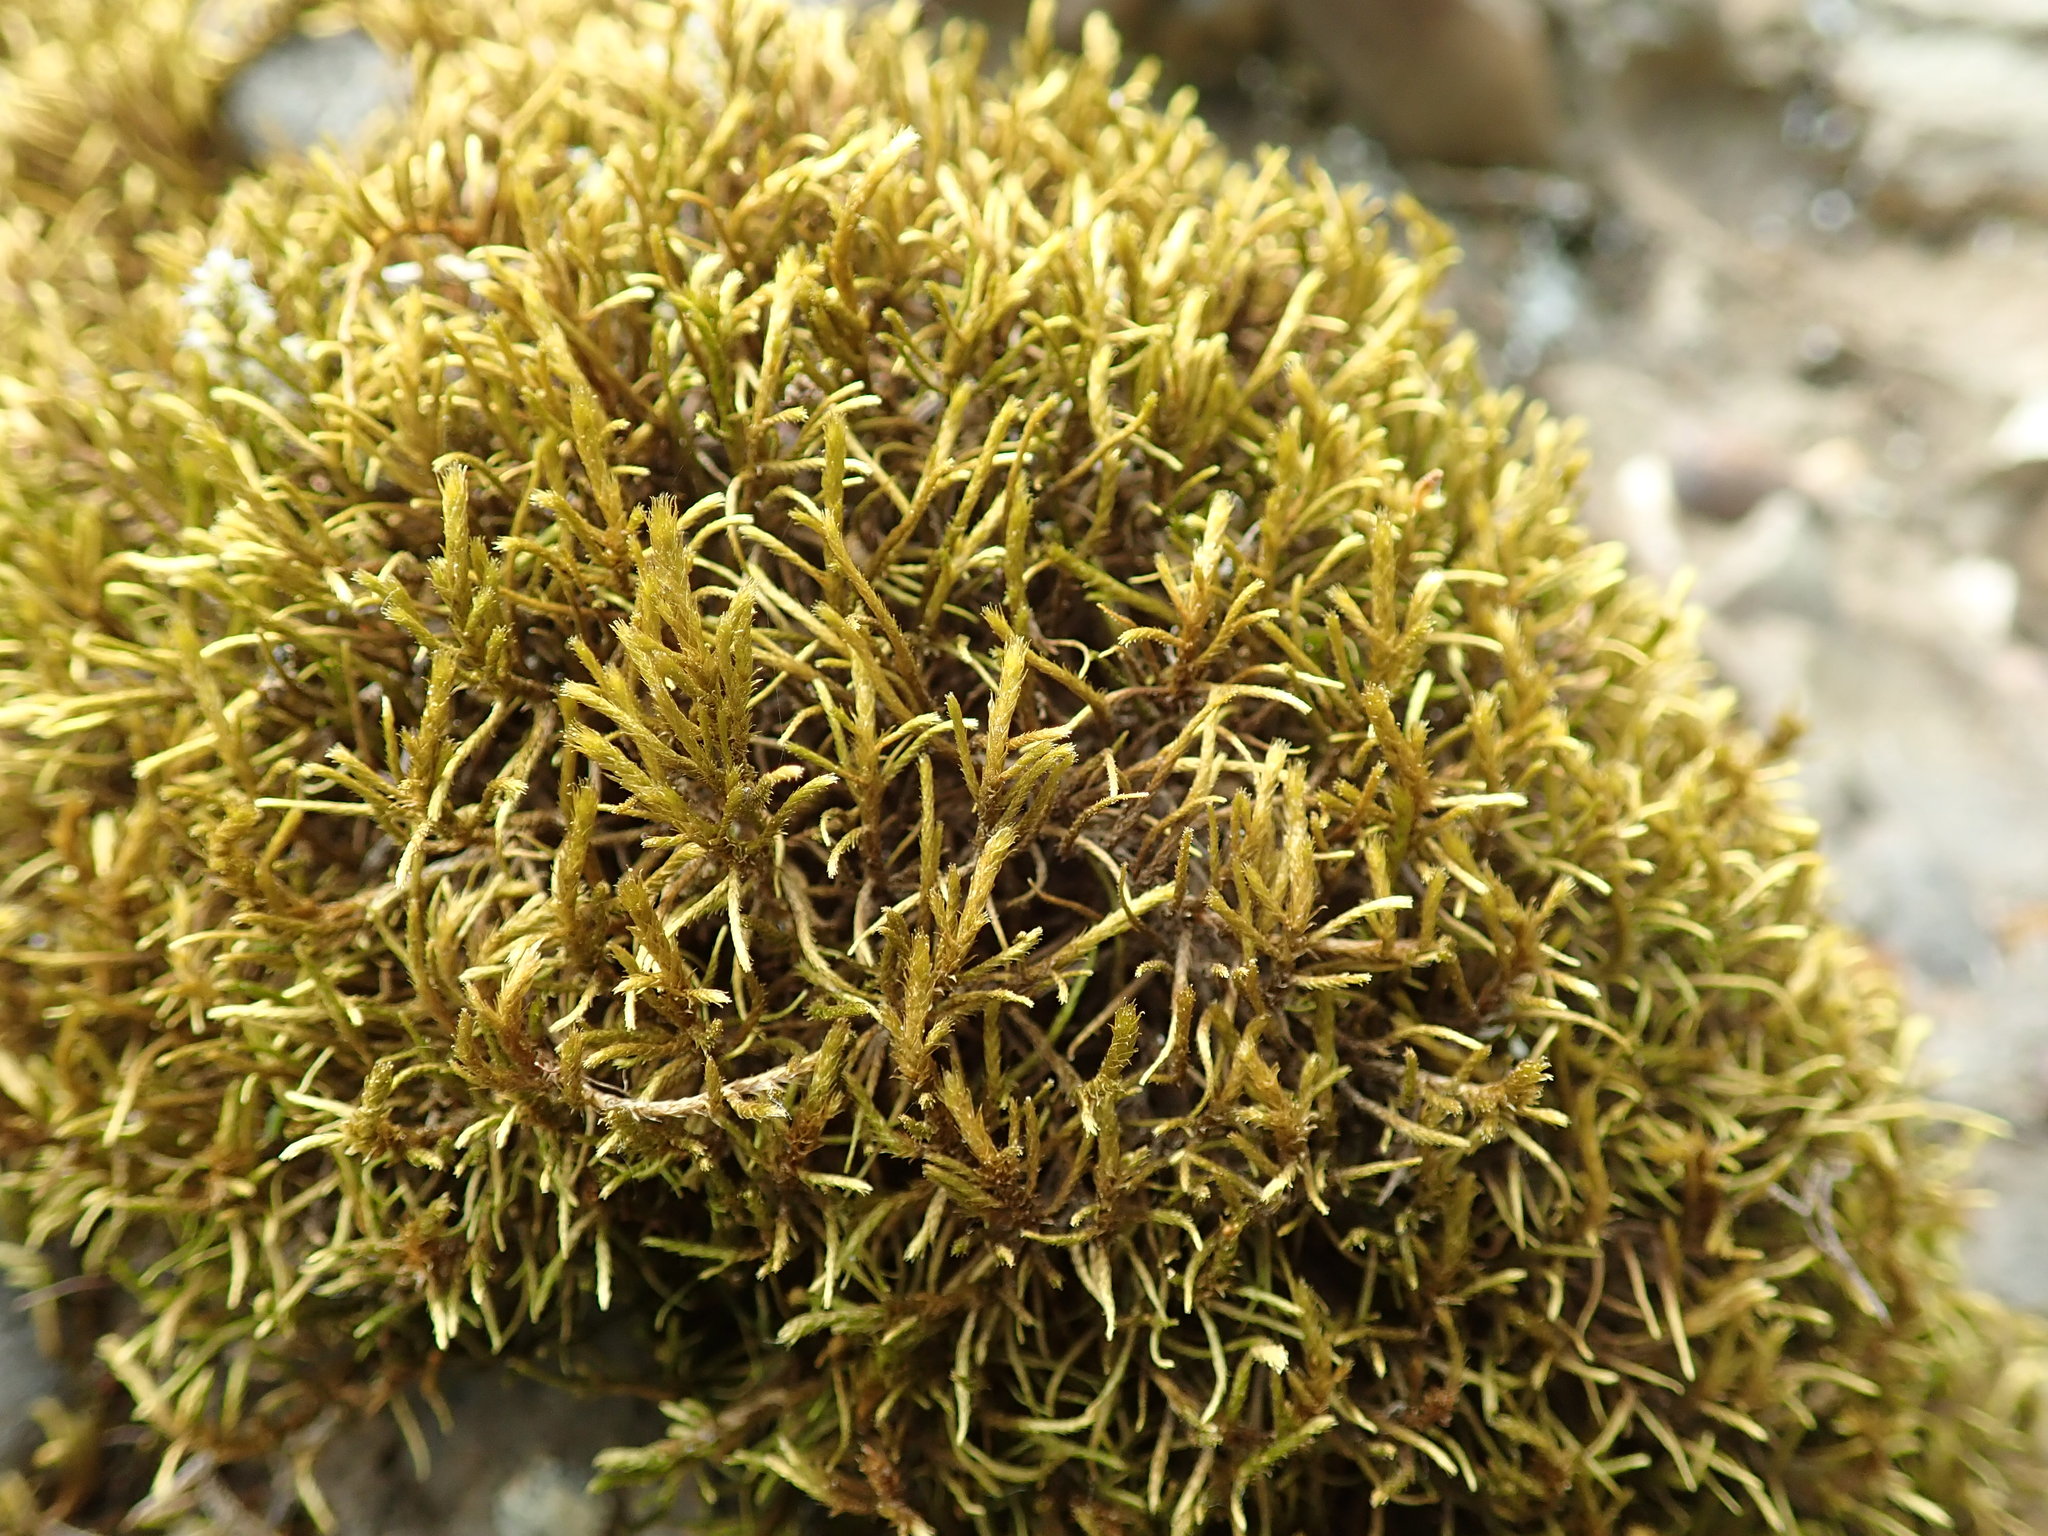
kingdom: Plantae
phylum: Bryophyta
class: Bryopsida
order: Hypnales
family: Antitrichiaceae
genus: Antitrichia
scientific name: Antitrichia californica
